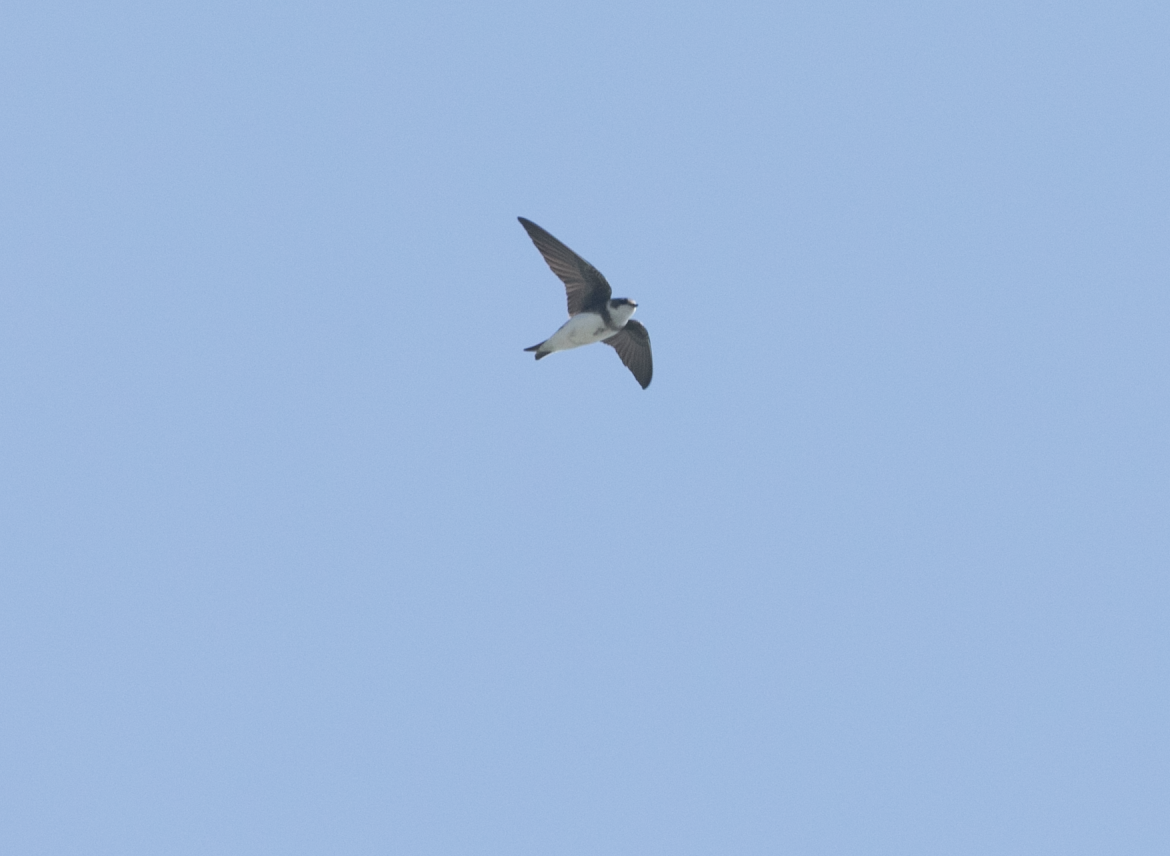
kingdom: Animalia
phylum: Chordata
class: Aves
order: Passeriformes
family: Hirundinidae
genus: Riparia
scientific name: Riparia riparia
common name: Sand martin
